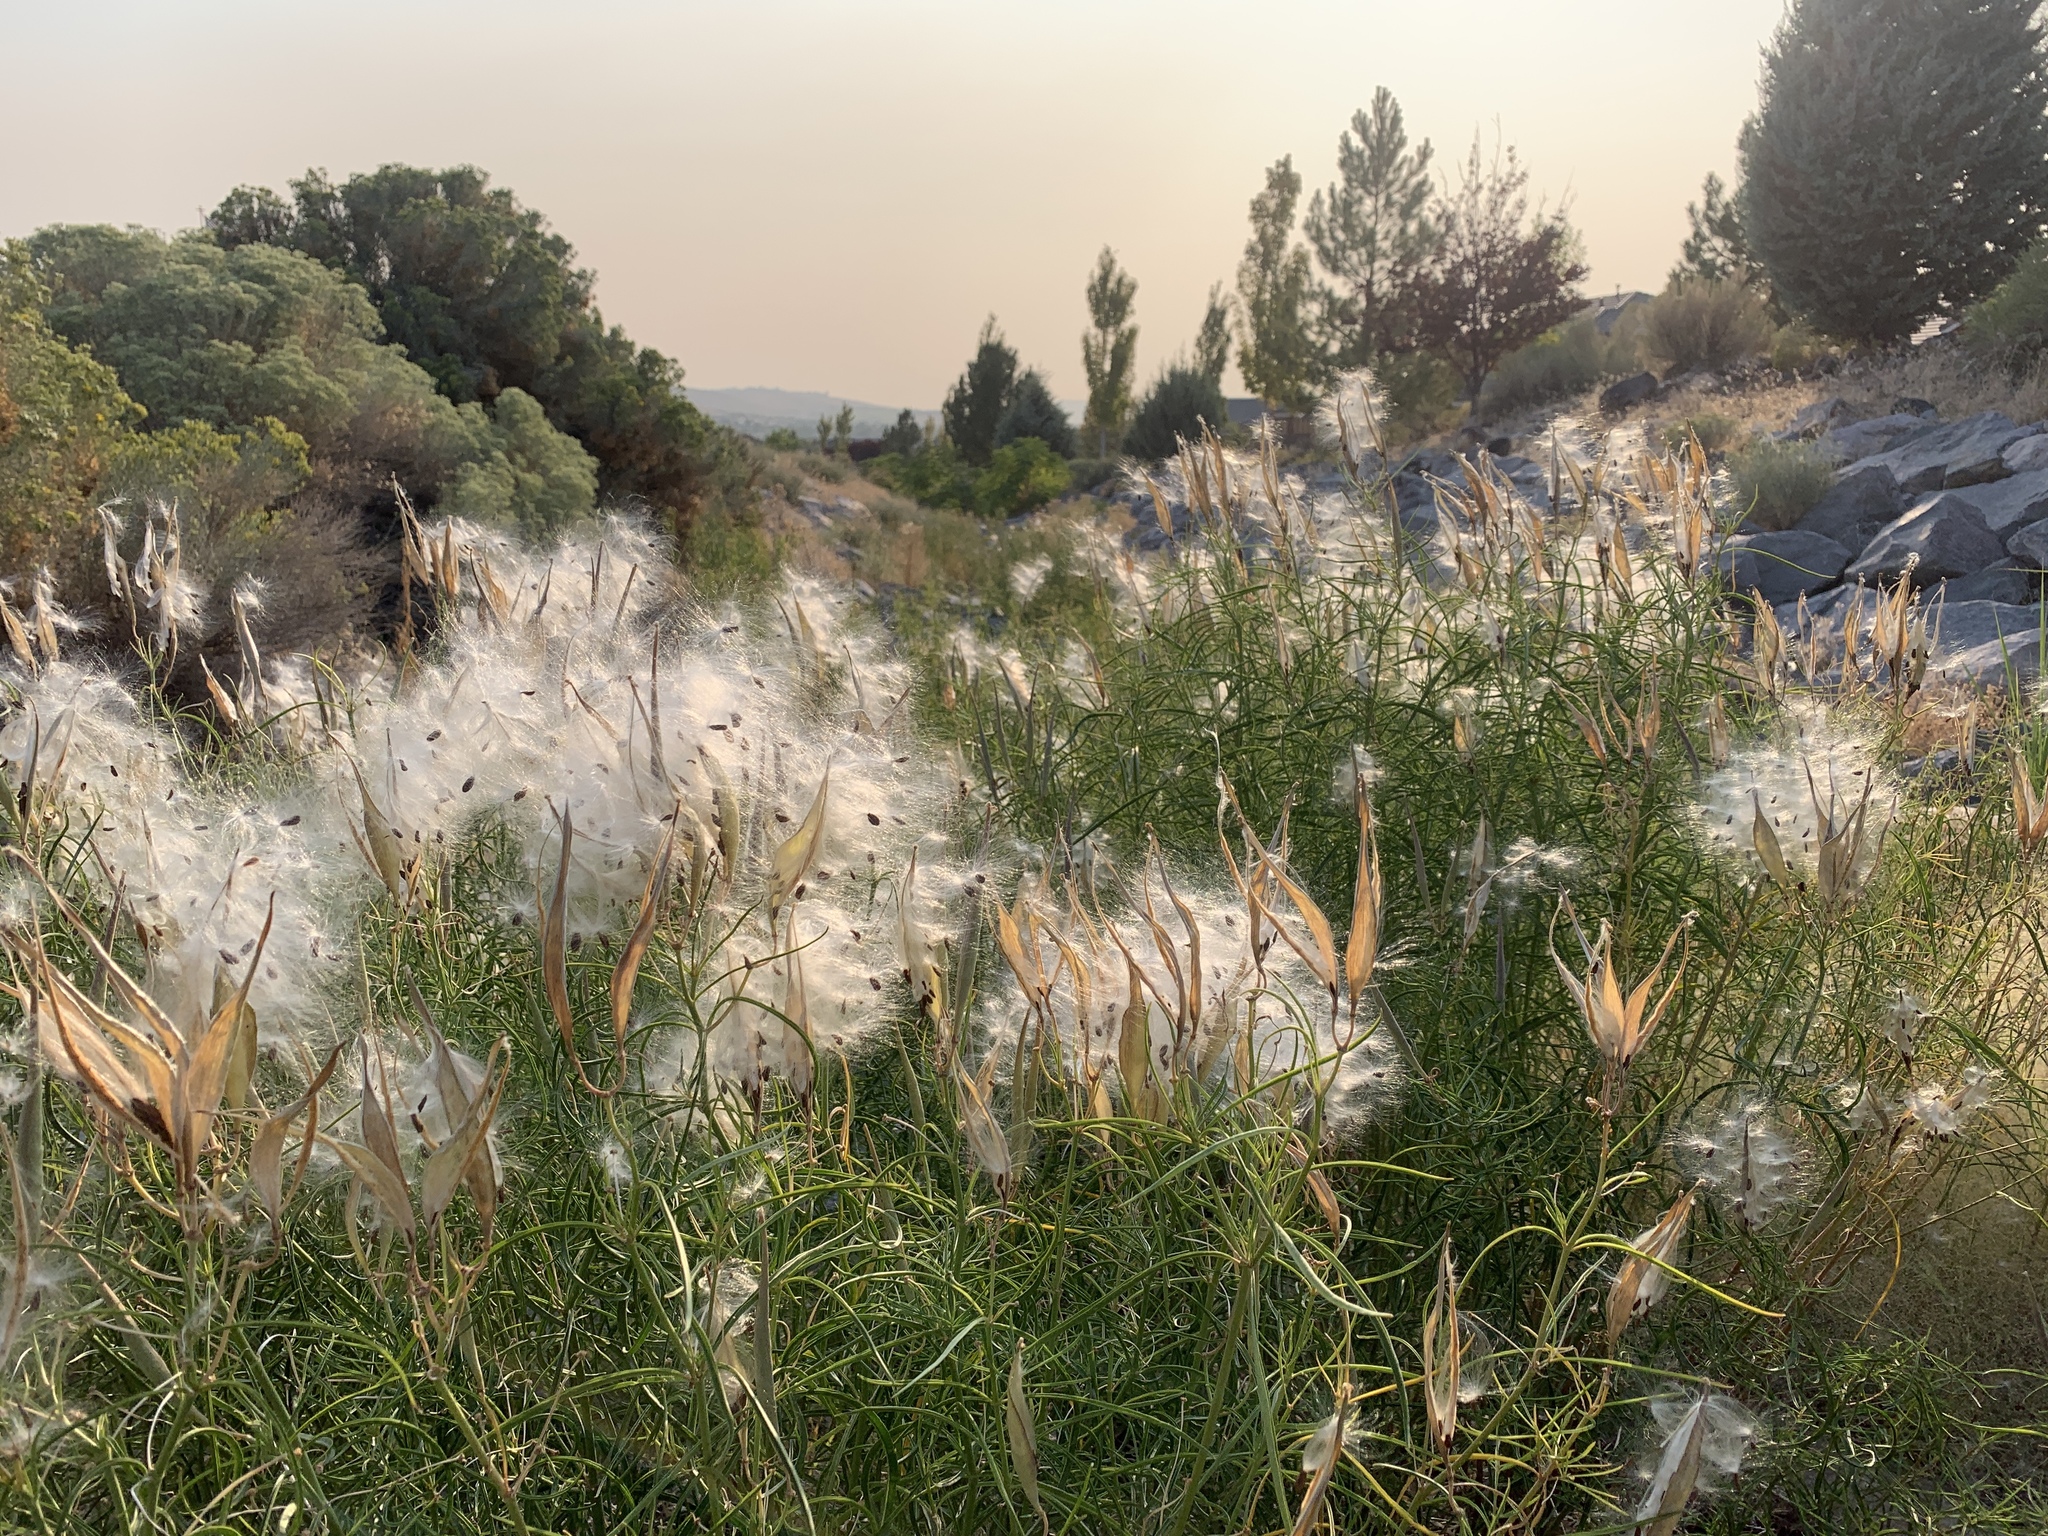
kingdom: Plantae
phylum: Tracheophyta
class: Magnoliopsida
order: Gentianales
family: Apocynaceae
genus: Asclepias
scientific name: Asclepias fascicularis
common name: Mexican milkweed
